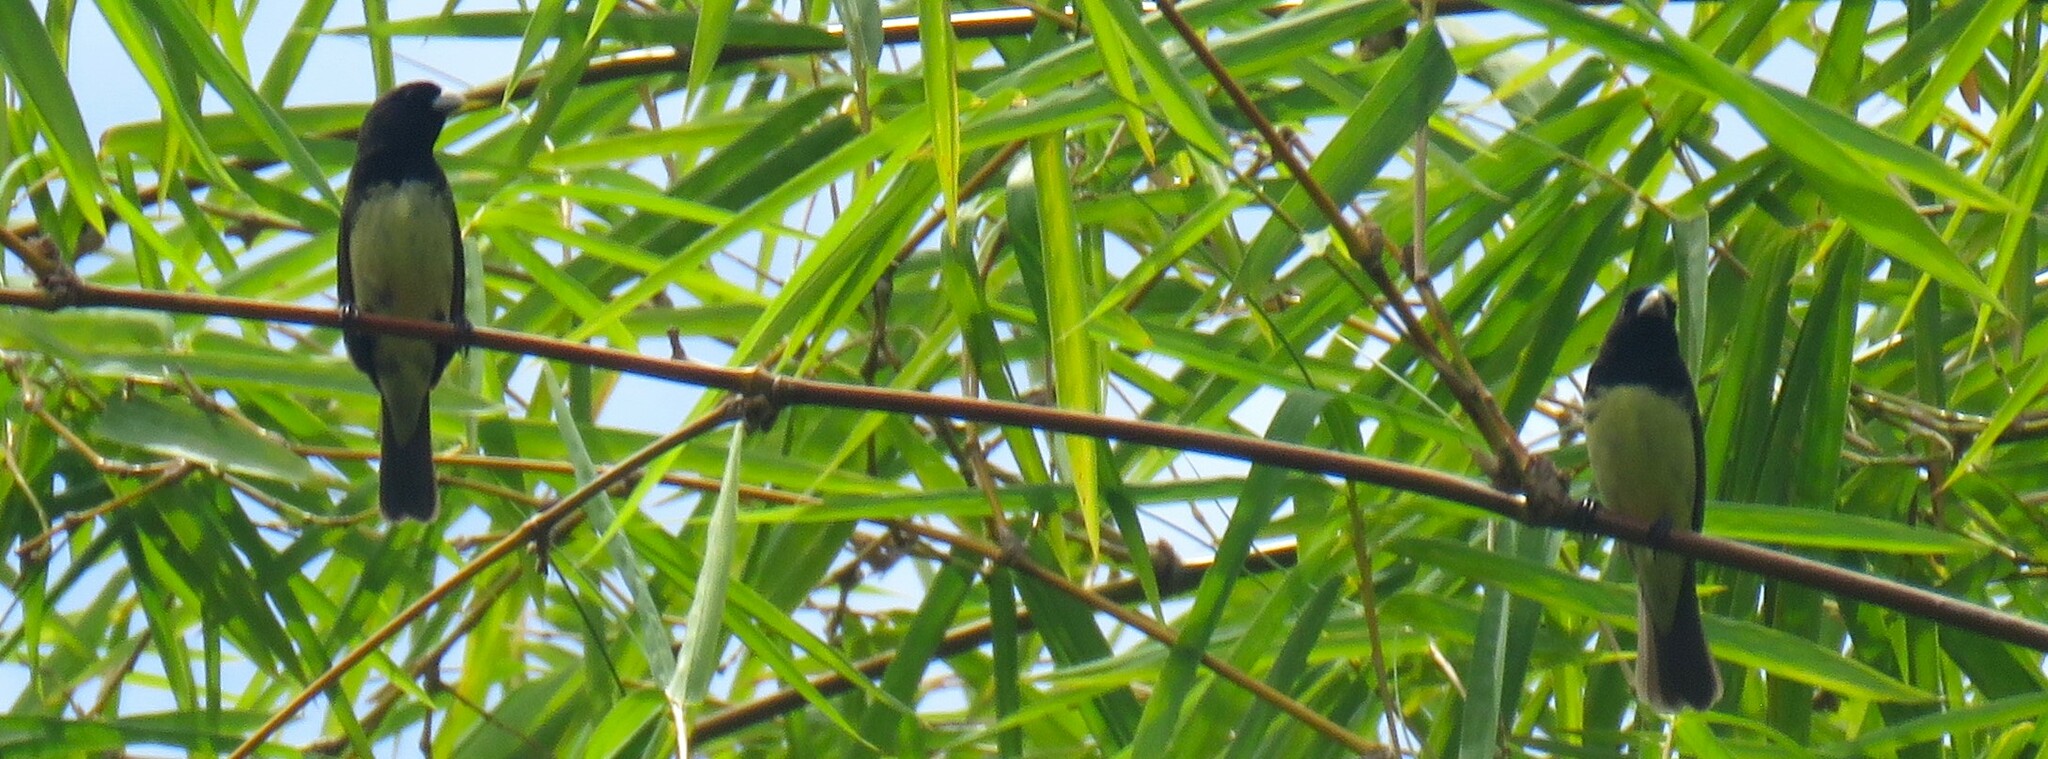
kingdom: Animalia
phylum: Chordata
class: Aves
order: Passeriformes
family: Thraupidae
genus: Sporophila
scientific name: Sporophila nigricollis
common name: Yellow-bellied seedeater
